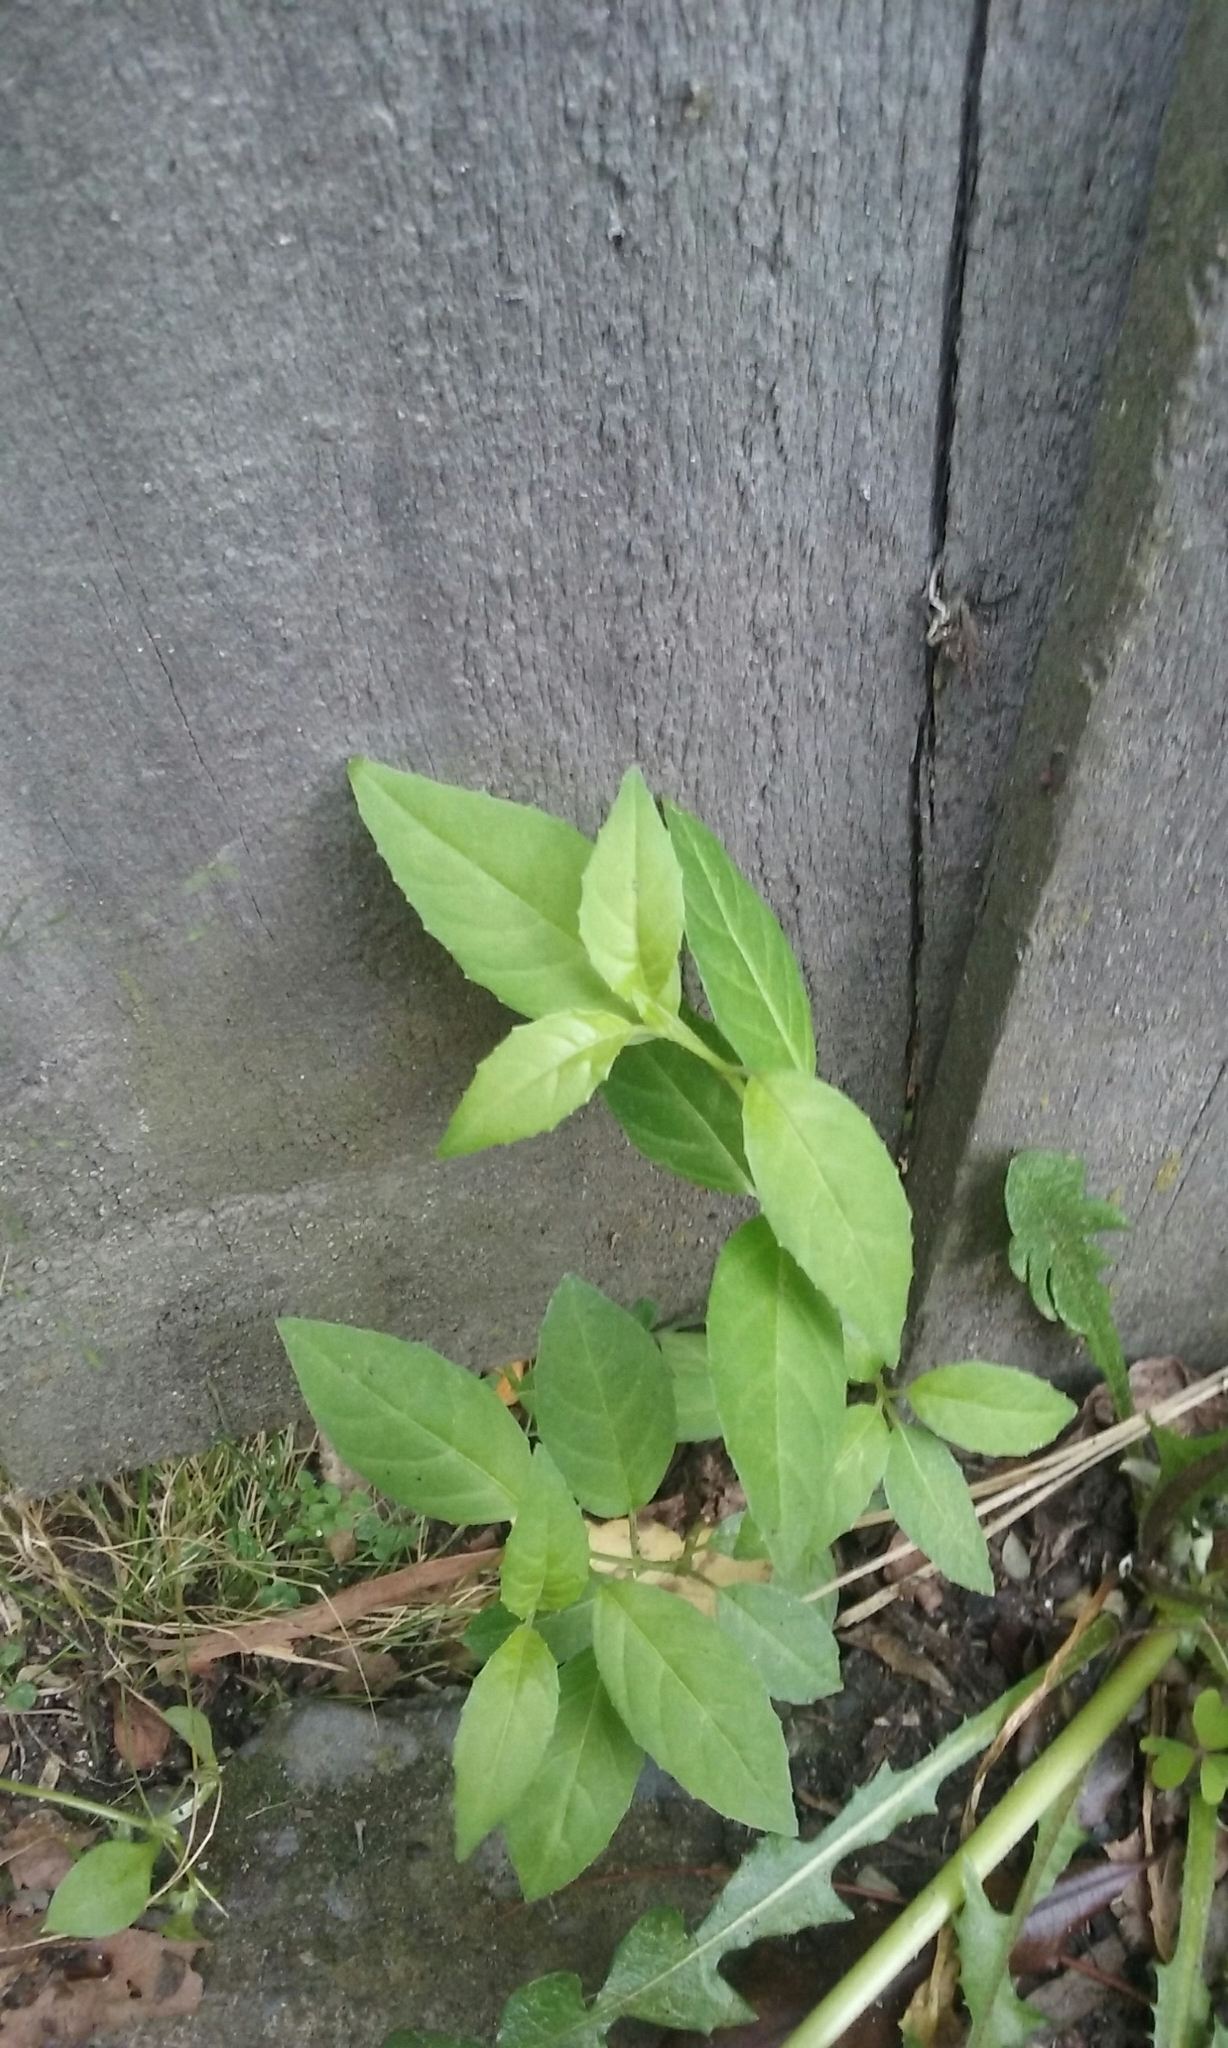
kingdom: Plantae
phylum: Tracheophyta
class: Magnoliopsida
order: Myrtales
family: Onagraceae
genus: Fuchsia
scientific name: Fuchsia magellanica
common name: Hardy fuchsia
